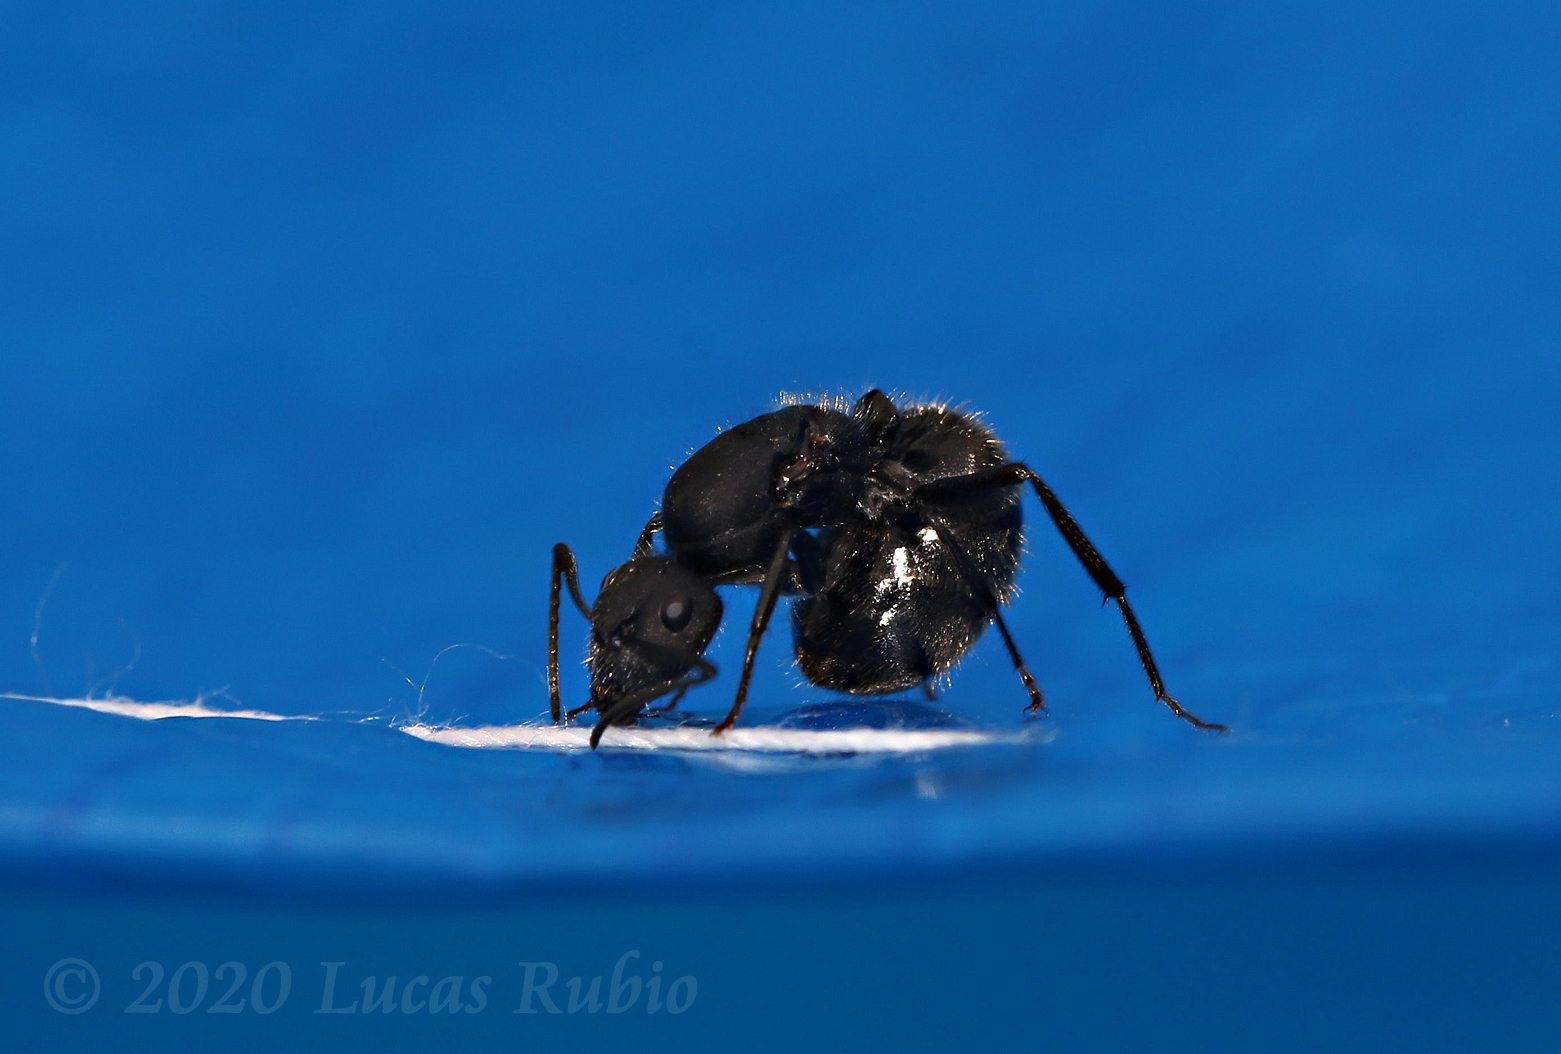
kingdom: Animalia
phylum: Arthropoda
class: Insecta
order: Hymenoptera
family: Formicidae
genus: Camponotus
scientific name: Camponotus mus
